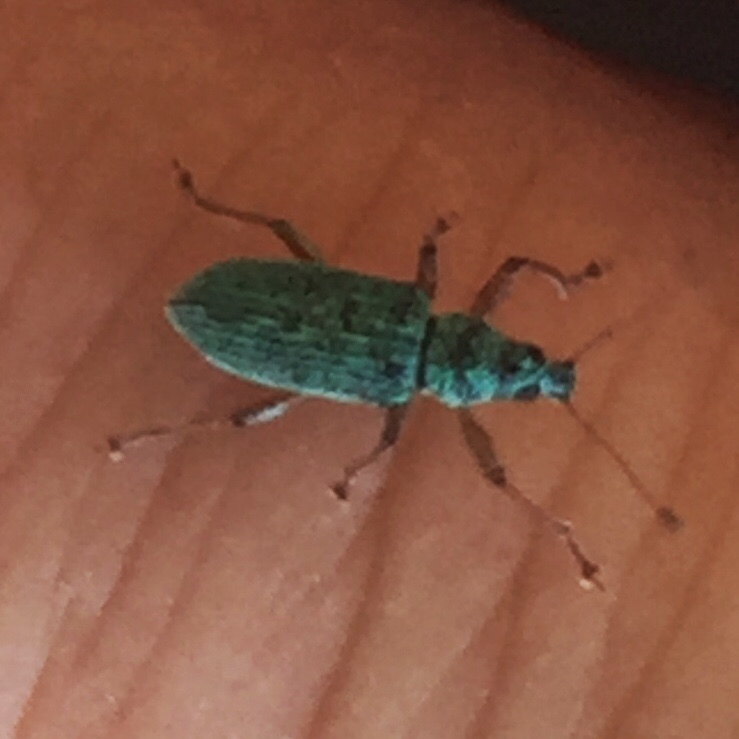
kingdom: Animalia
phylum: Arthropoda
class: Insecta
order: Coleoptera
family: Curculionidae
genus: Polydrusus
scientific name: Polydrusus formosus
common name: Weevil
